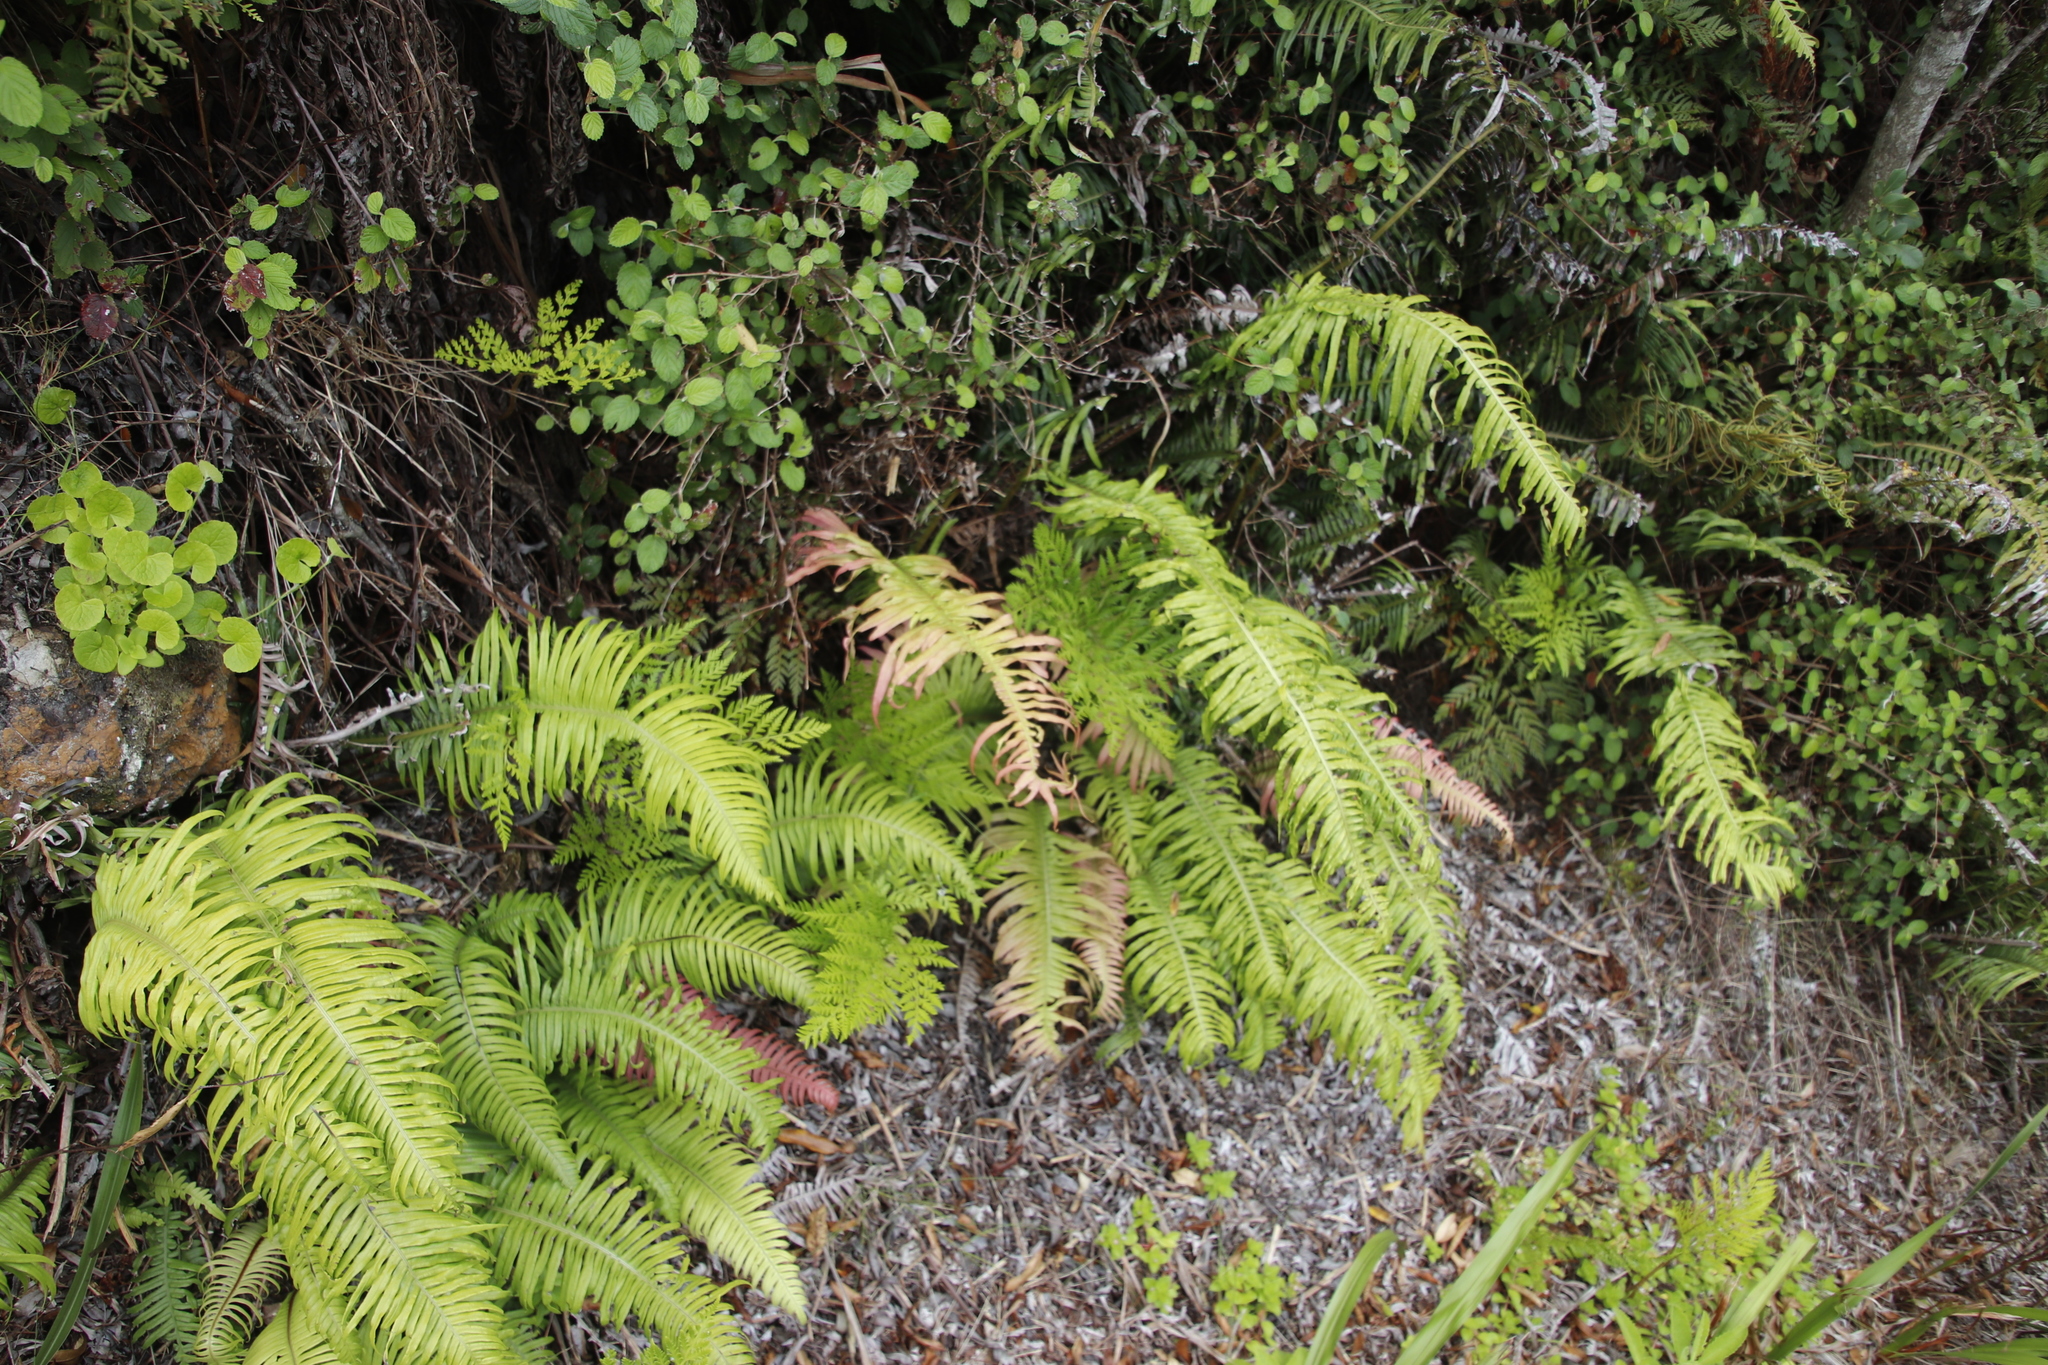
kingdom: Plantae
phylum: Tracheophyta
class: Polypodiopsida
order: Polypodiales
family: Dryopteridaceae
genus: Rumohra
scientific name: Rumohra adiantiformis
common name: Leather fern
